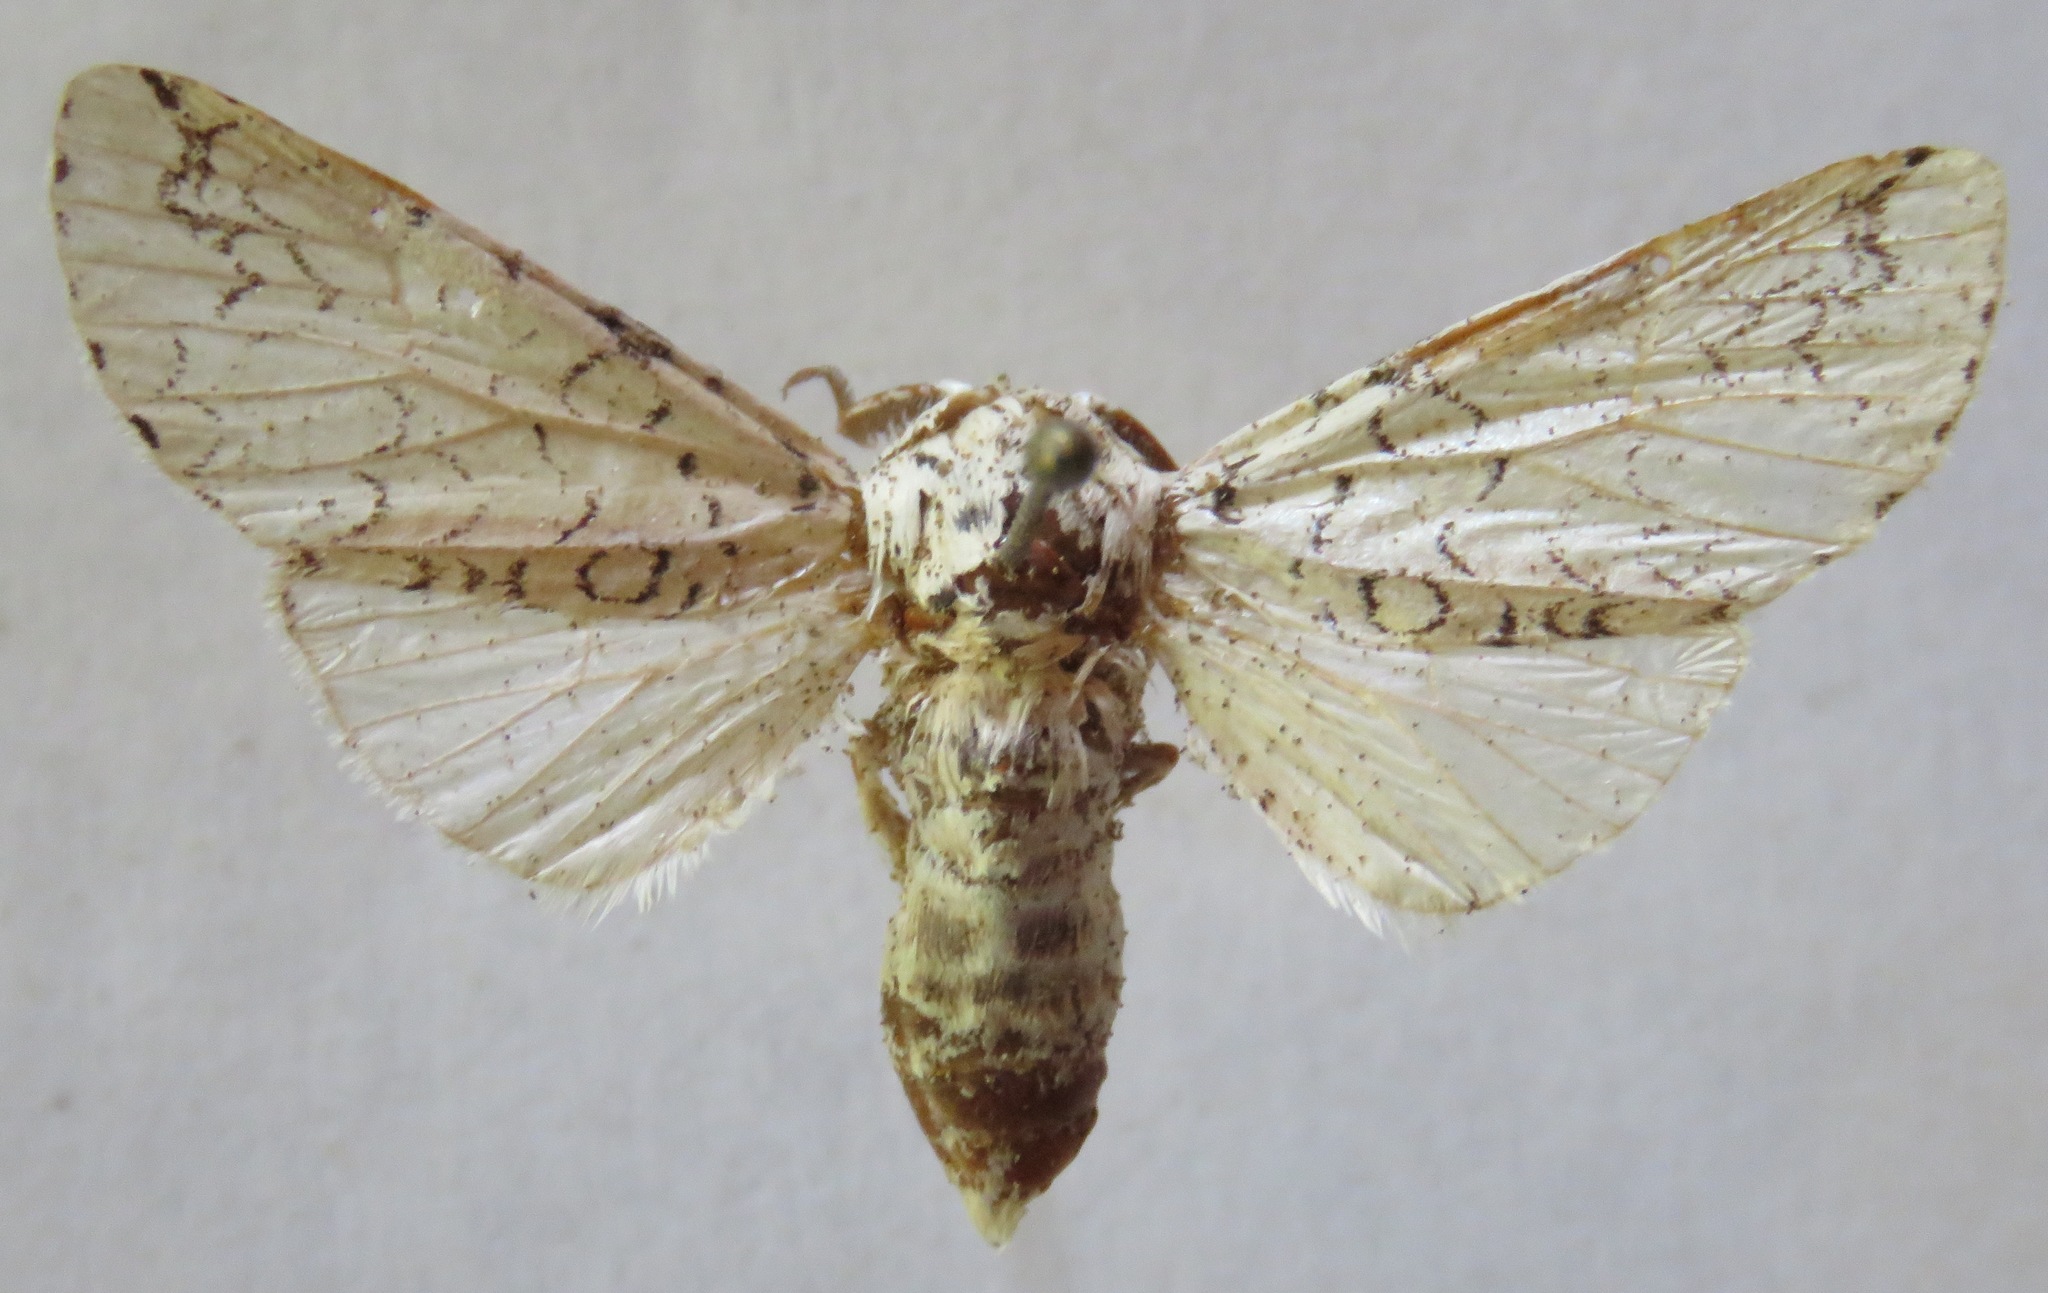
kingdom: Animalia
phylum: Arthropoda
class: Insecta
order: Lepidoptera
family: Notodontidae
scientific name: Notodontidae
